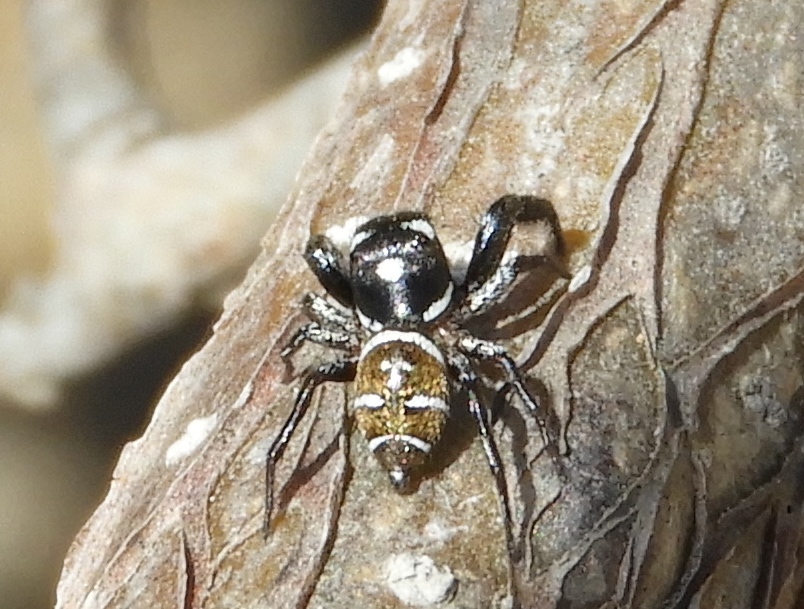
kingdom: Animalia
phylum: Arthropoda
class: Arachnida
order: Araneae
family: Salticidae
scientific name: Salticidae
